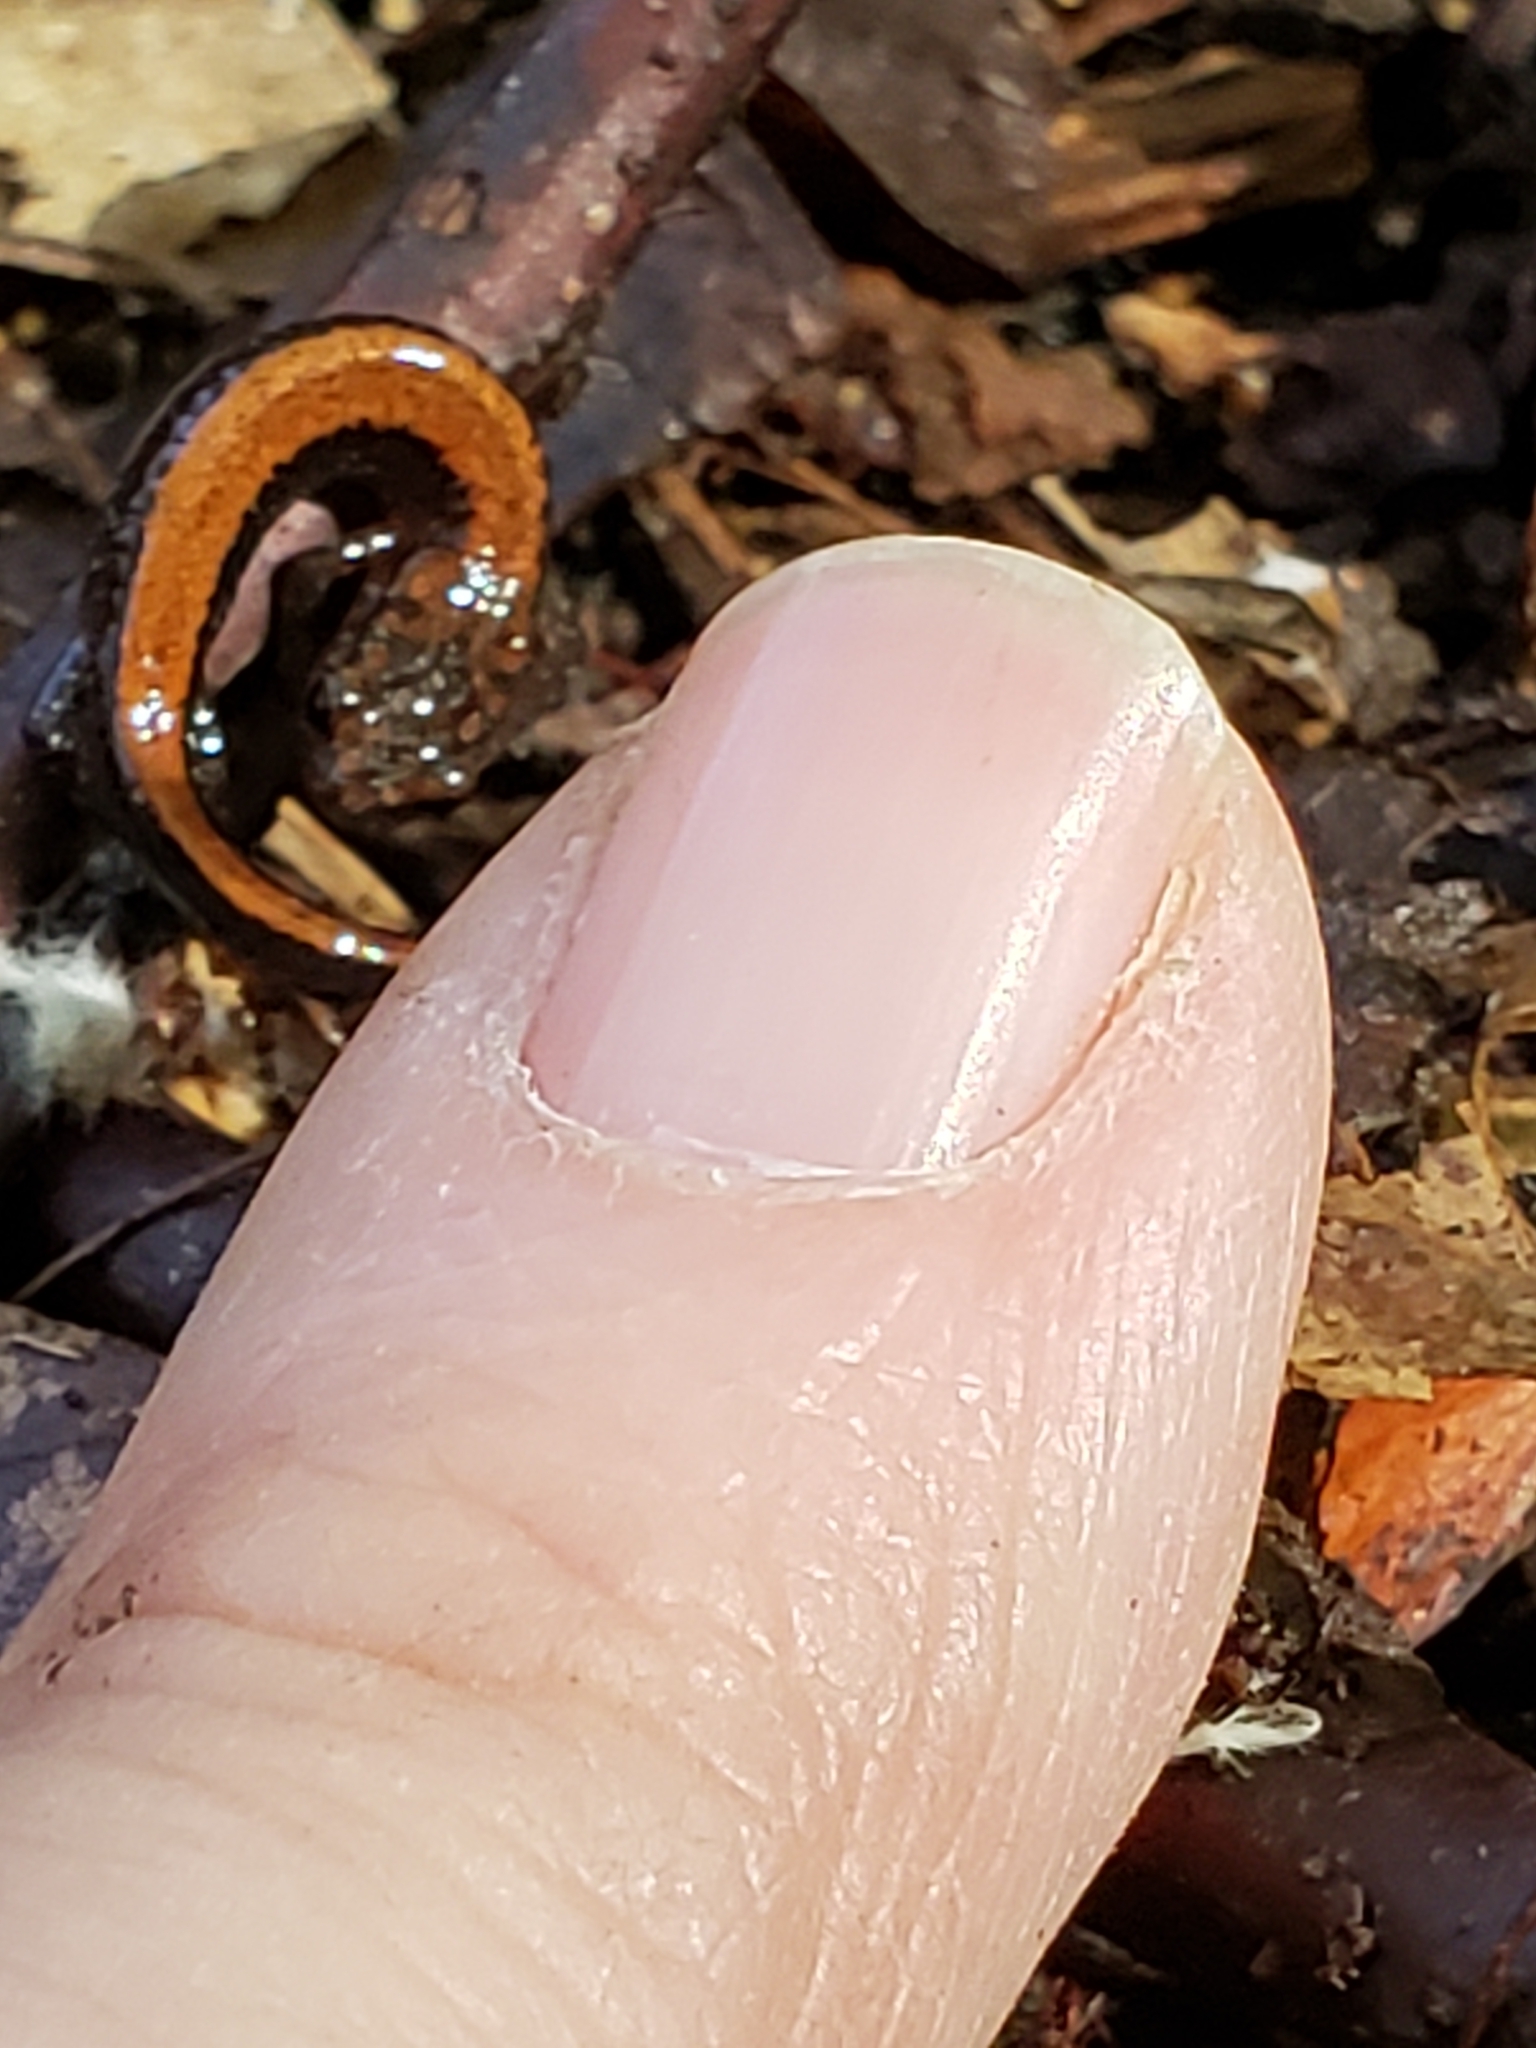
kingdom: Animalia
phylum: Chordata
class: Amphibia
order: Caudata
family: Plethodontidae
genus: Plethodon
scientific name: Plethodon cinereus
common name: Redback salamander
